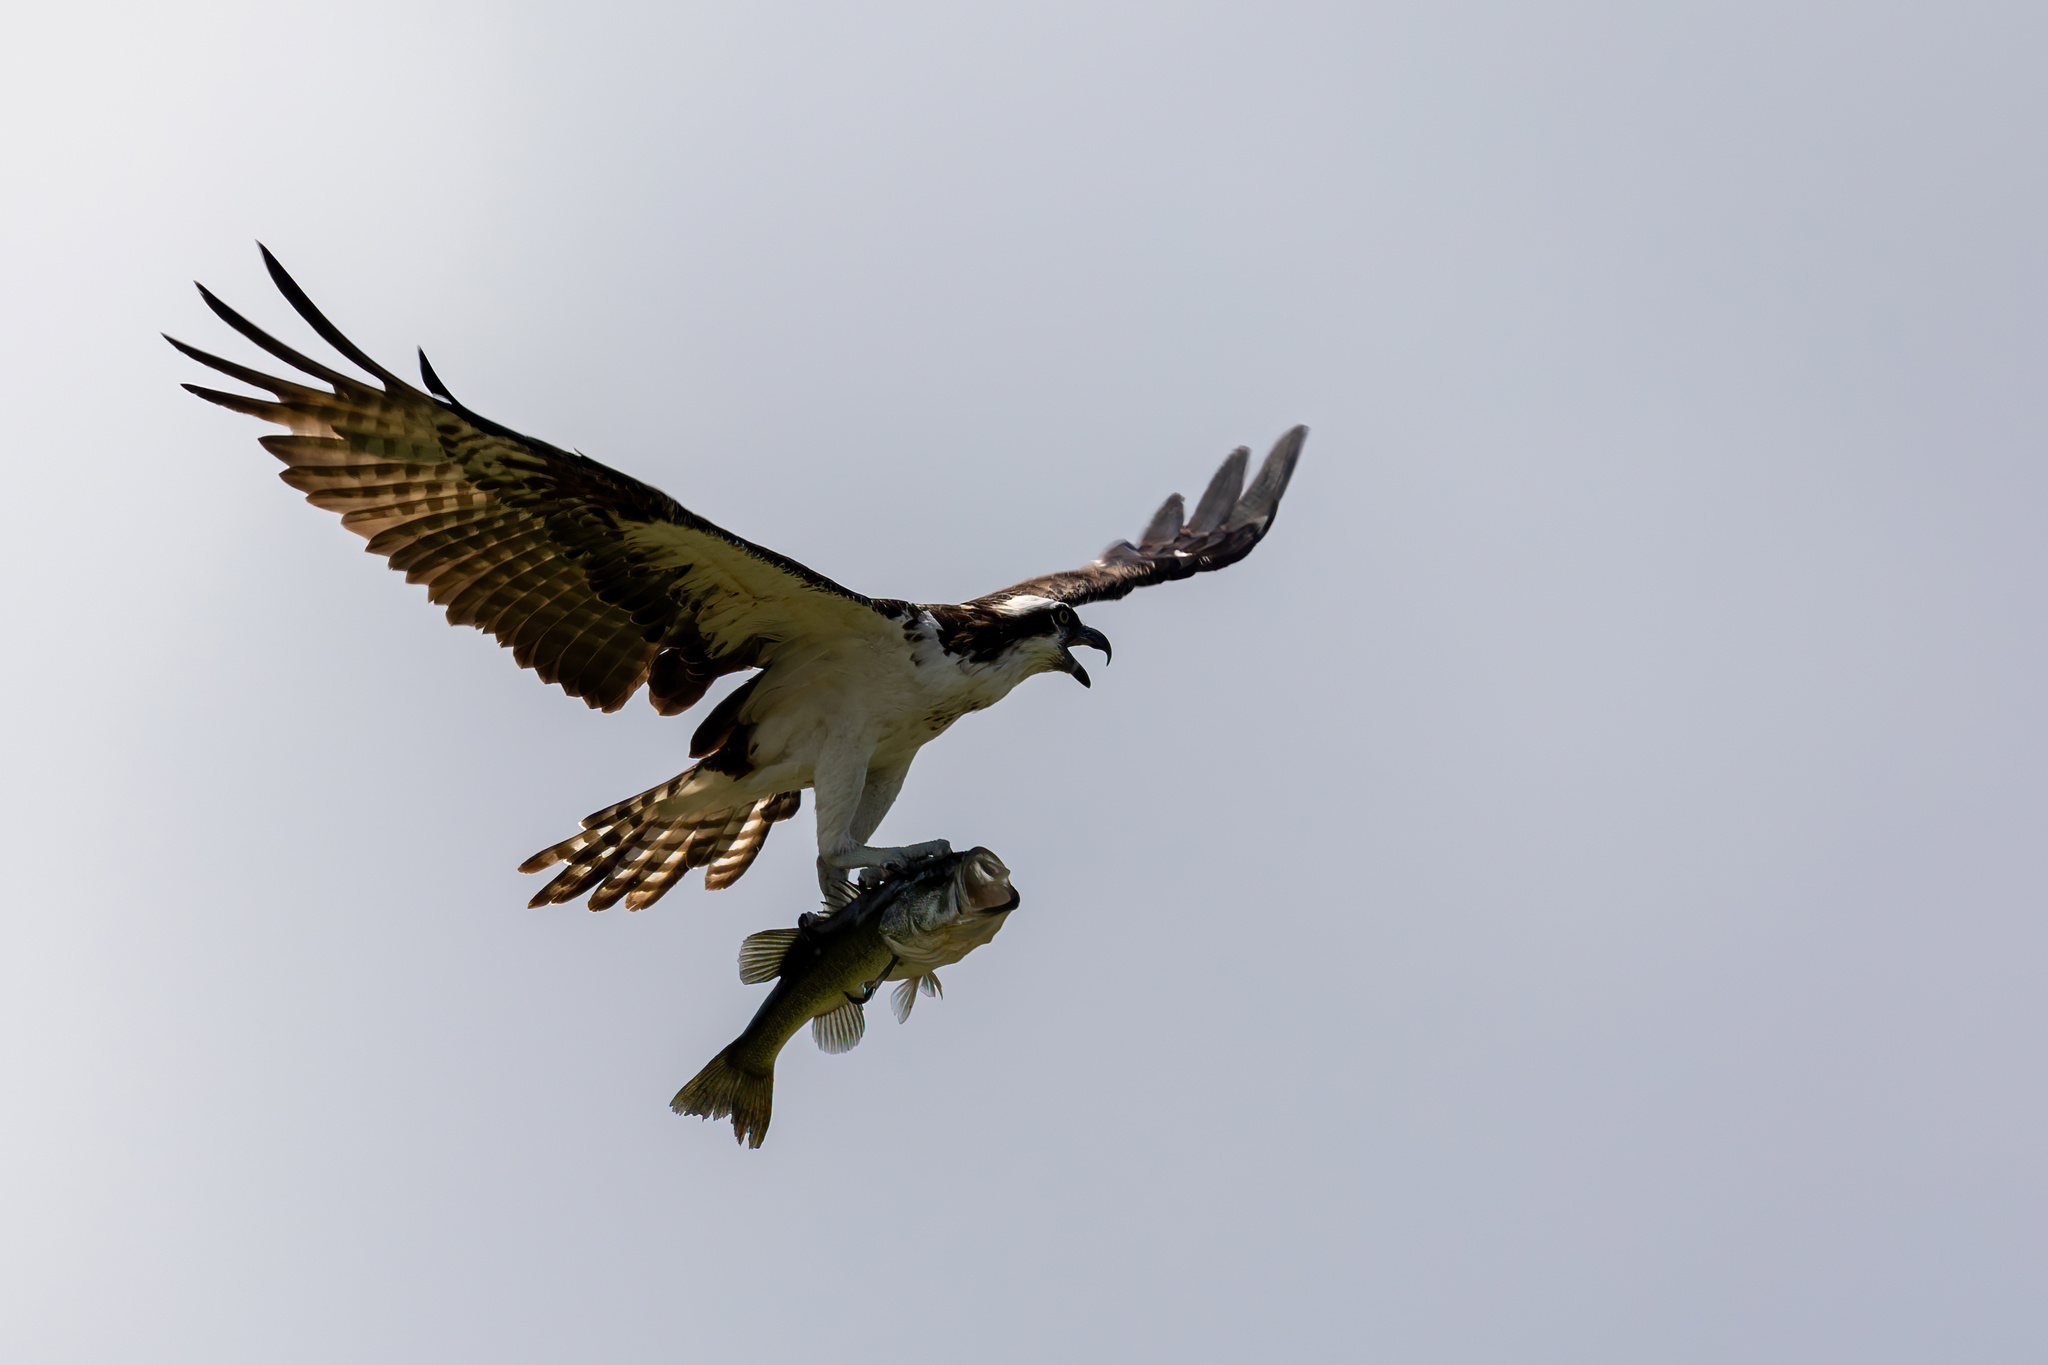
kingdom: Animalia
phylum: Chordata
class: Aves
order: Accipitriformes
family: Pandionidae
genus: Pandion
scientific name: Pandion haliaetus
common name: Osprey
